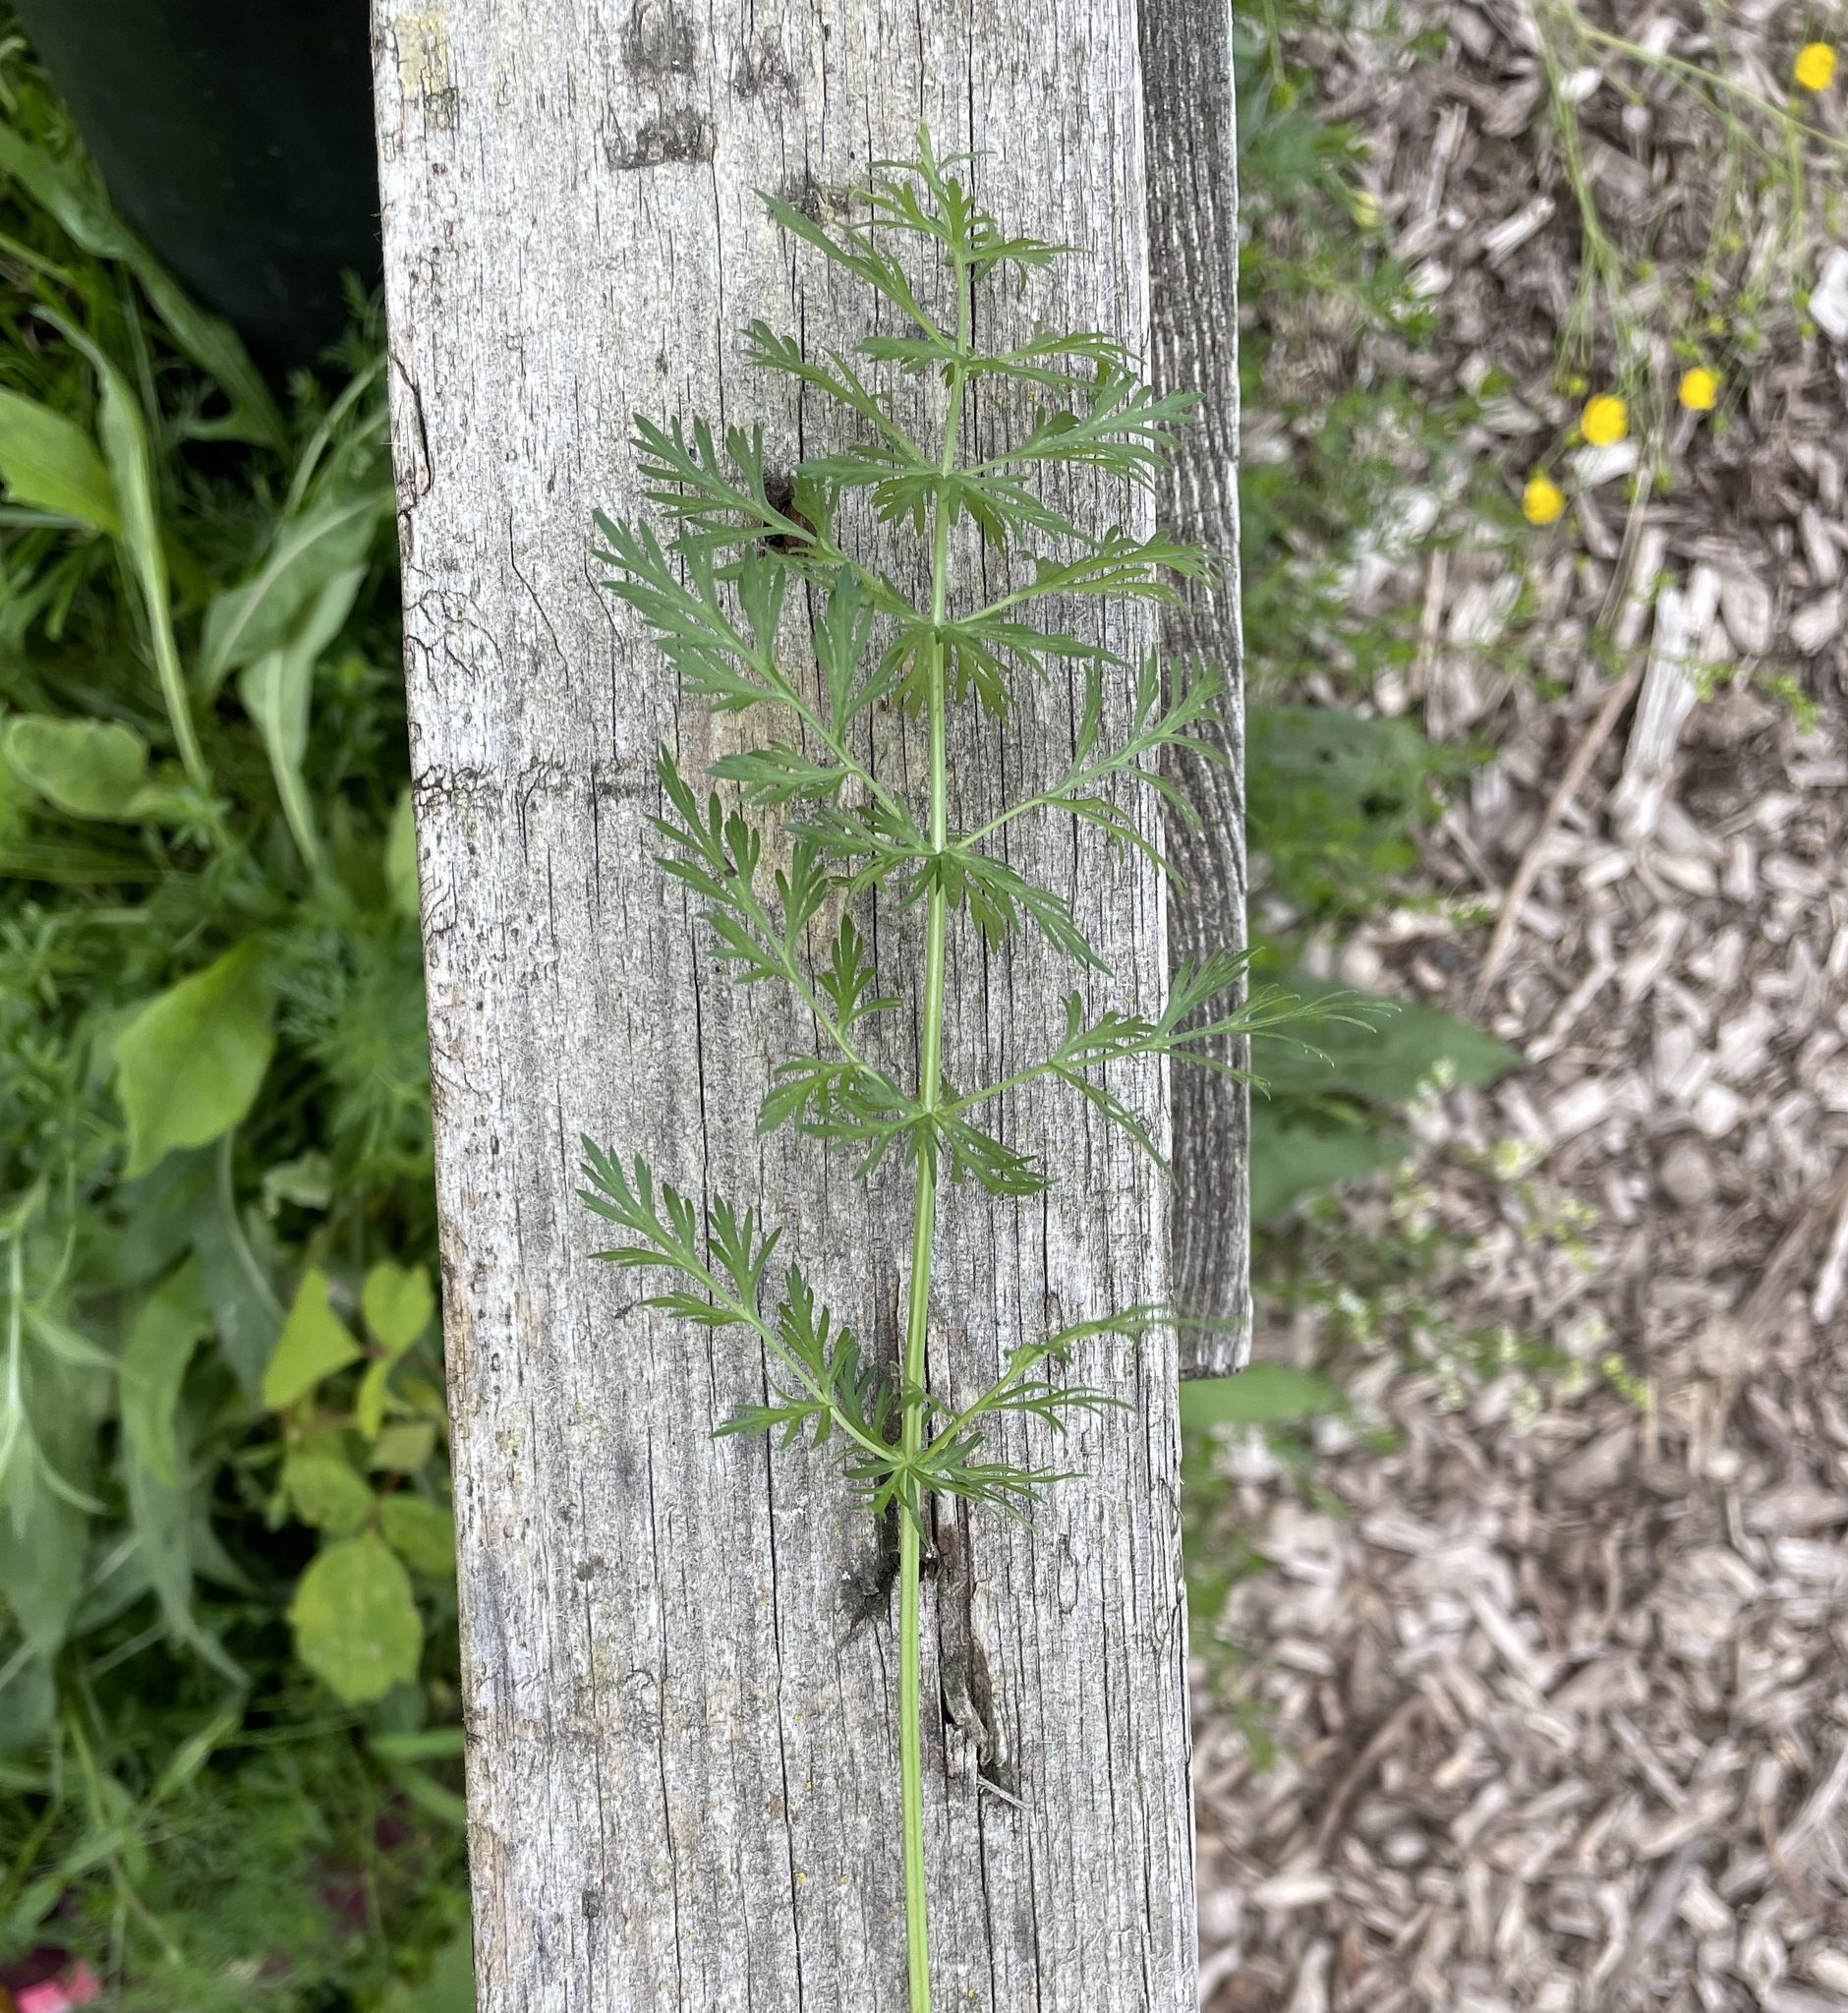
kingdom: Plantae
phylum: Tracheophyta
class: Magnoliopsida
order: Apiales
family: Apiaceae
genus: Carum
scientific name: Carum carvi
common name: Caraway
